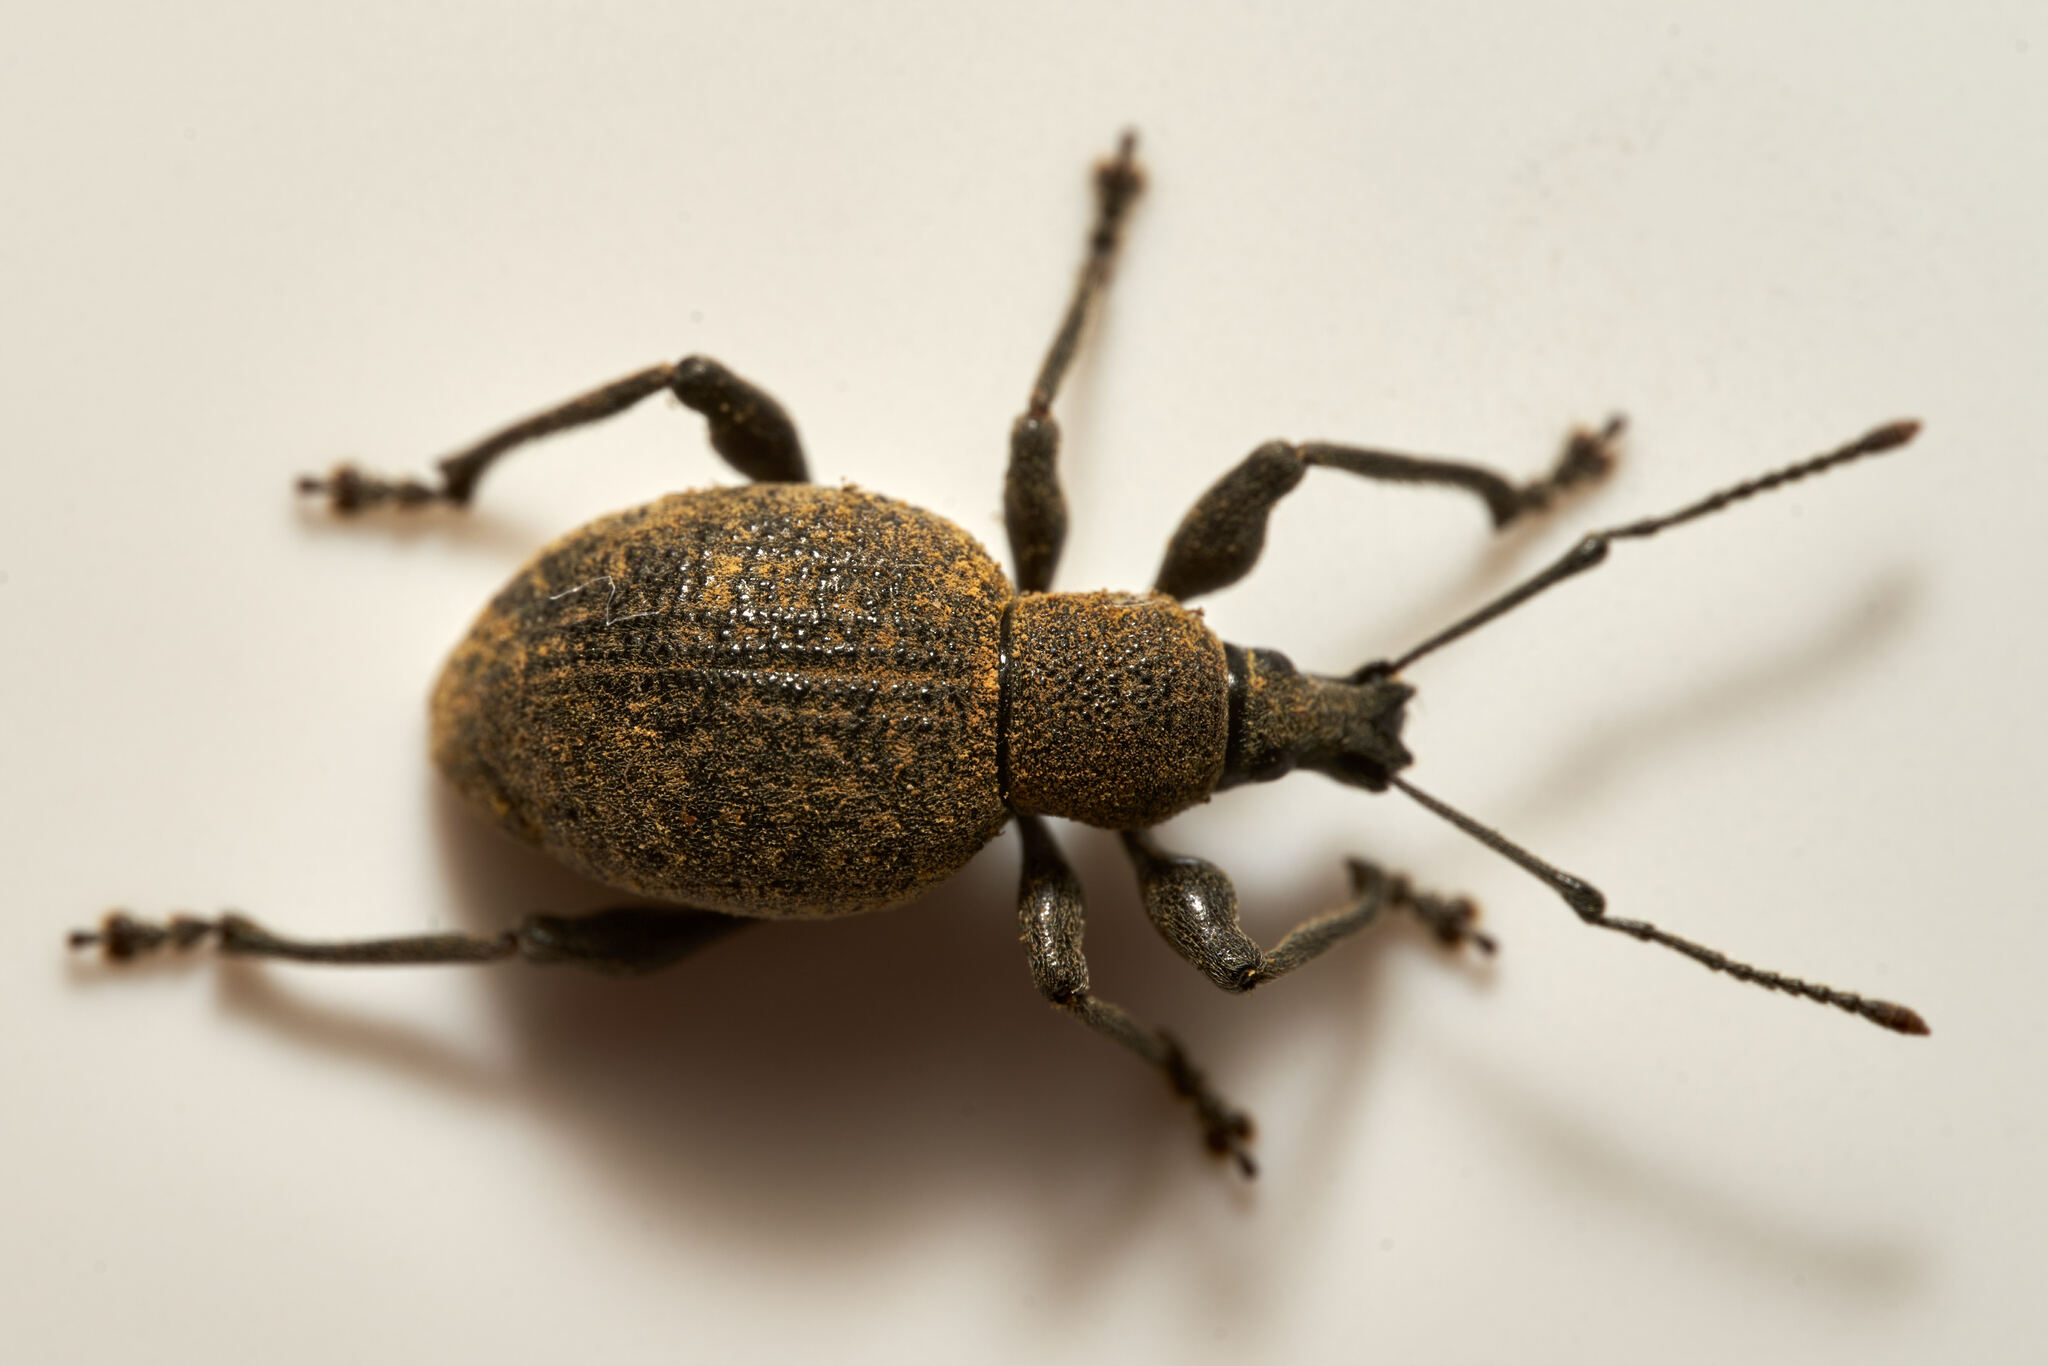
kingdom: Animalia
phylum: Arthropoda
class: Insecta
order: Coleoptera
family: Curculionidae
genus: Otiorhynchus
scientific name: Otiorhynchus aurifer
